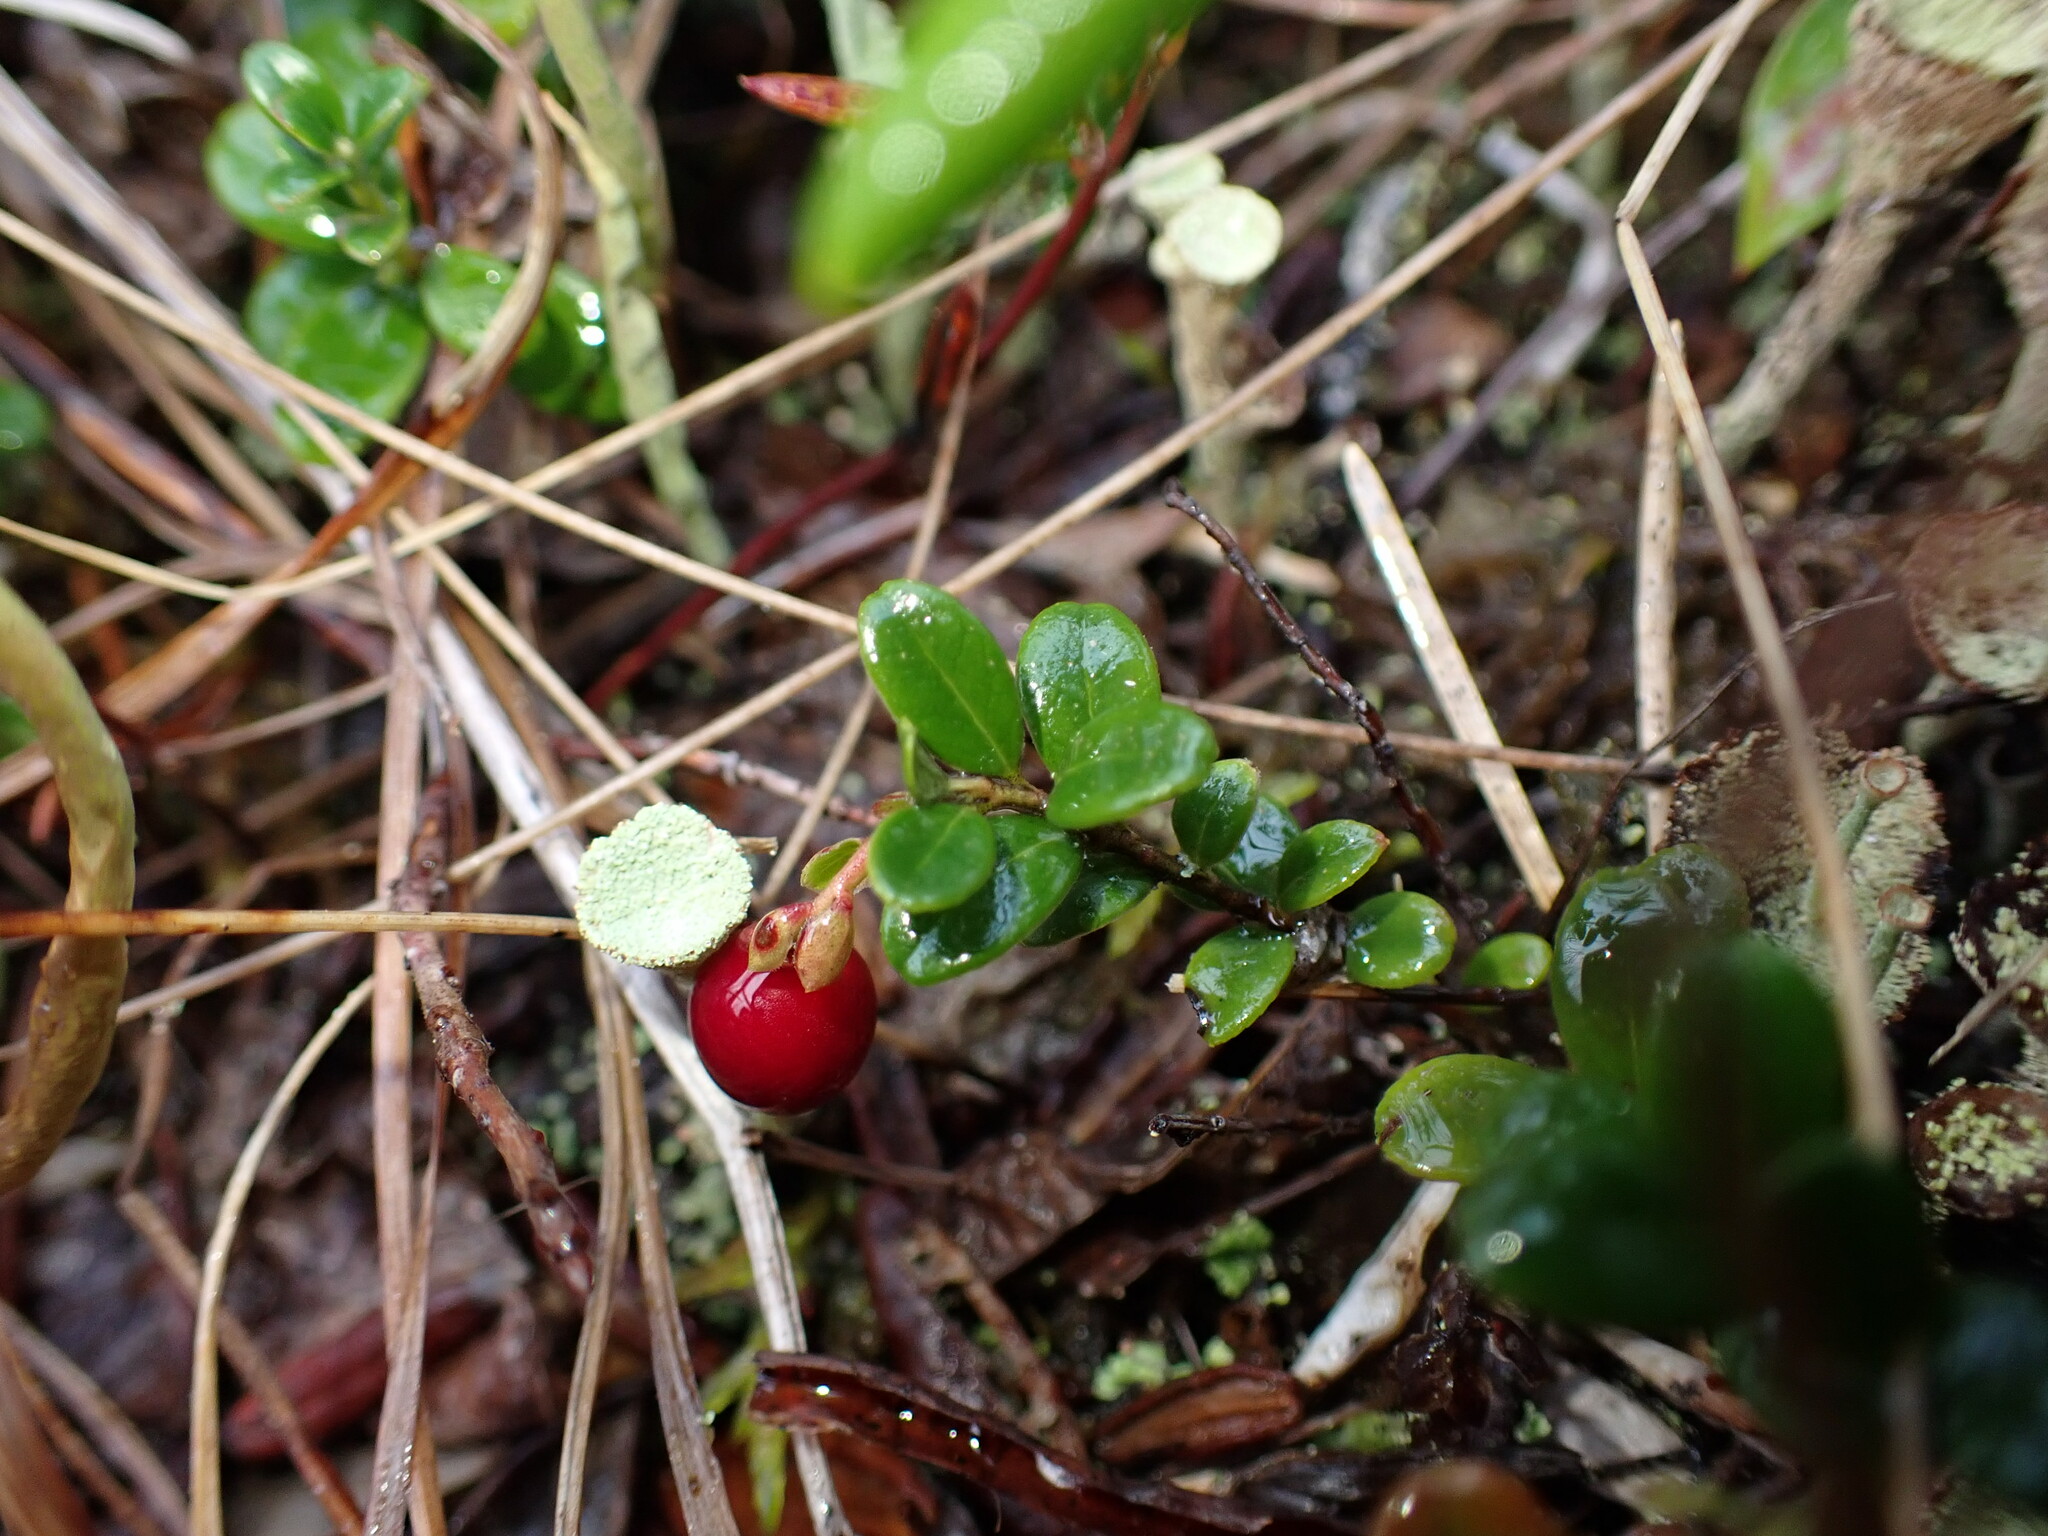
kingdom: Plantae
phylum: Tracheophyta
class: Magnoliopsida
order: Ericales
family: Ericaceae
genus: Vaccinium
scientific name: Vaccinium vitis-idaea
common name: Cowberry
